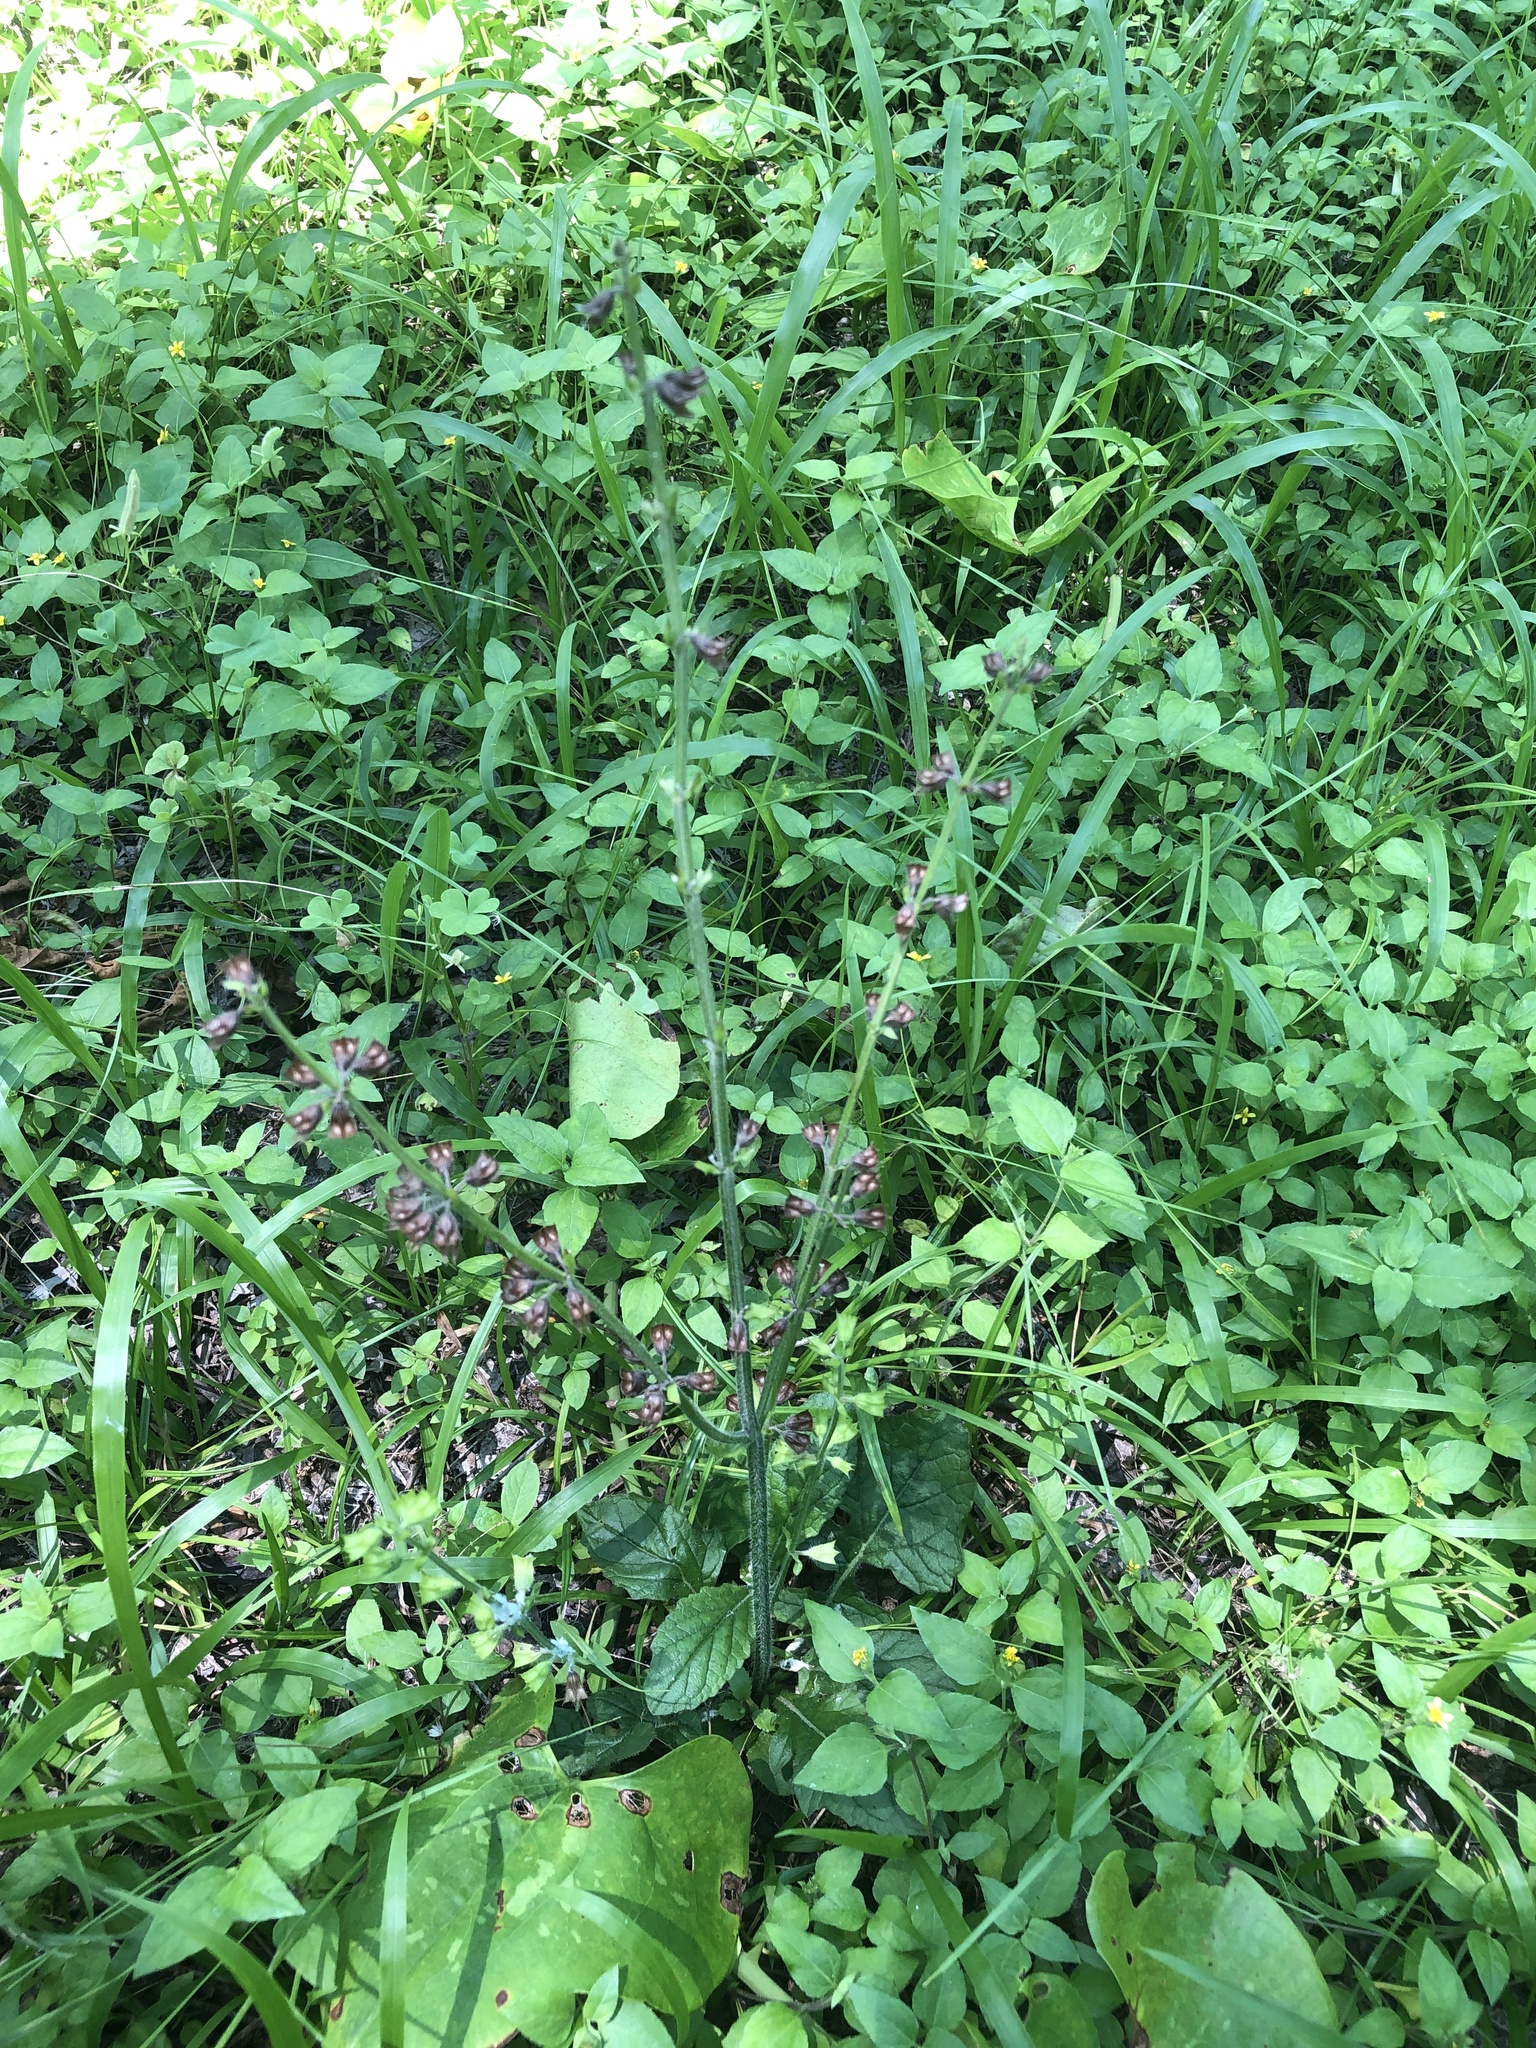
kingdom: Plantae
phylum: Tracheophyta
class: Magnoliopsida
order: Lamiales
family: Lamiaceae
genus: Salvia
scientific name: Salvia lyrata
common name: Cancerweed
